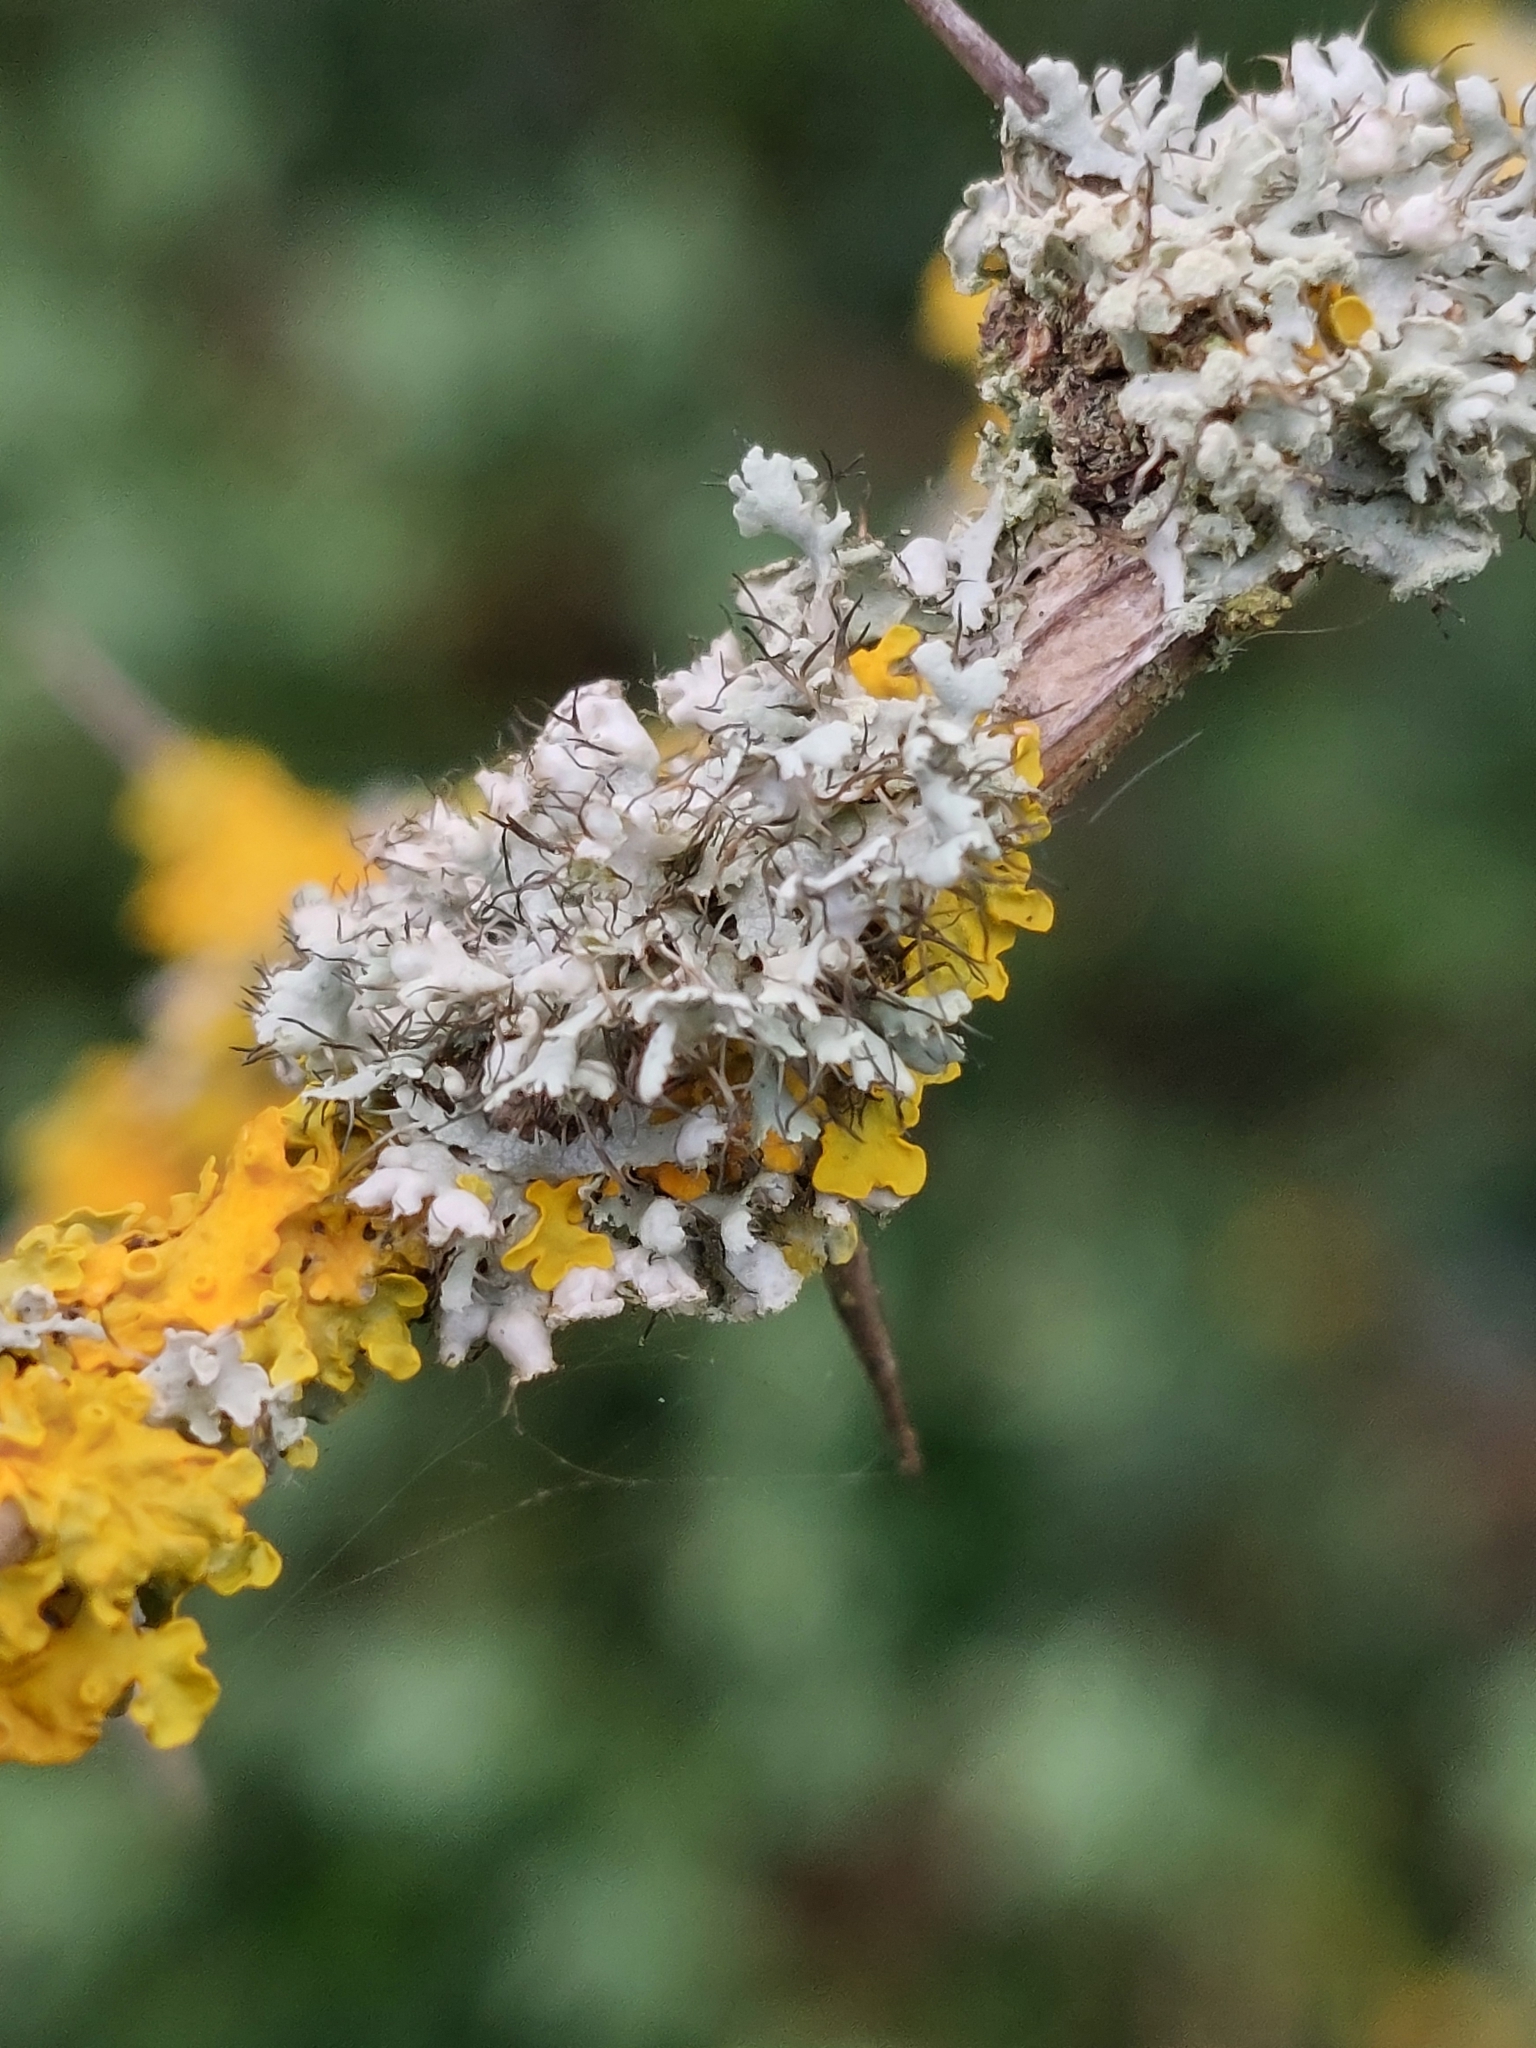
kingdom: Fungi
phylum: Ascomycota
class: Lecanoromycetes
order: Caliciales
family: Physciaceae
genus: Physcia
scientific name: Physcia adscendens
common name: Hooded rosette lichen
